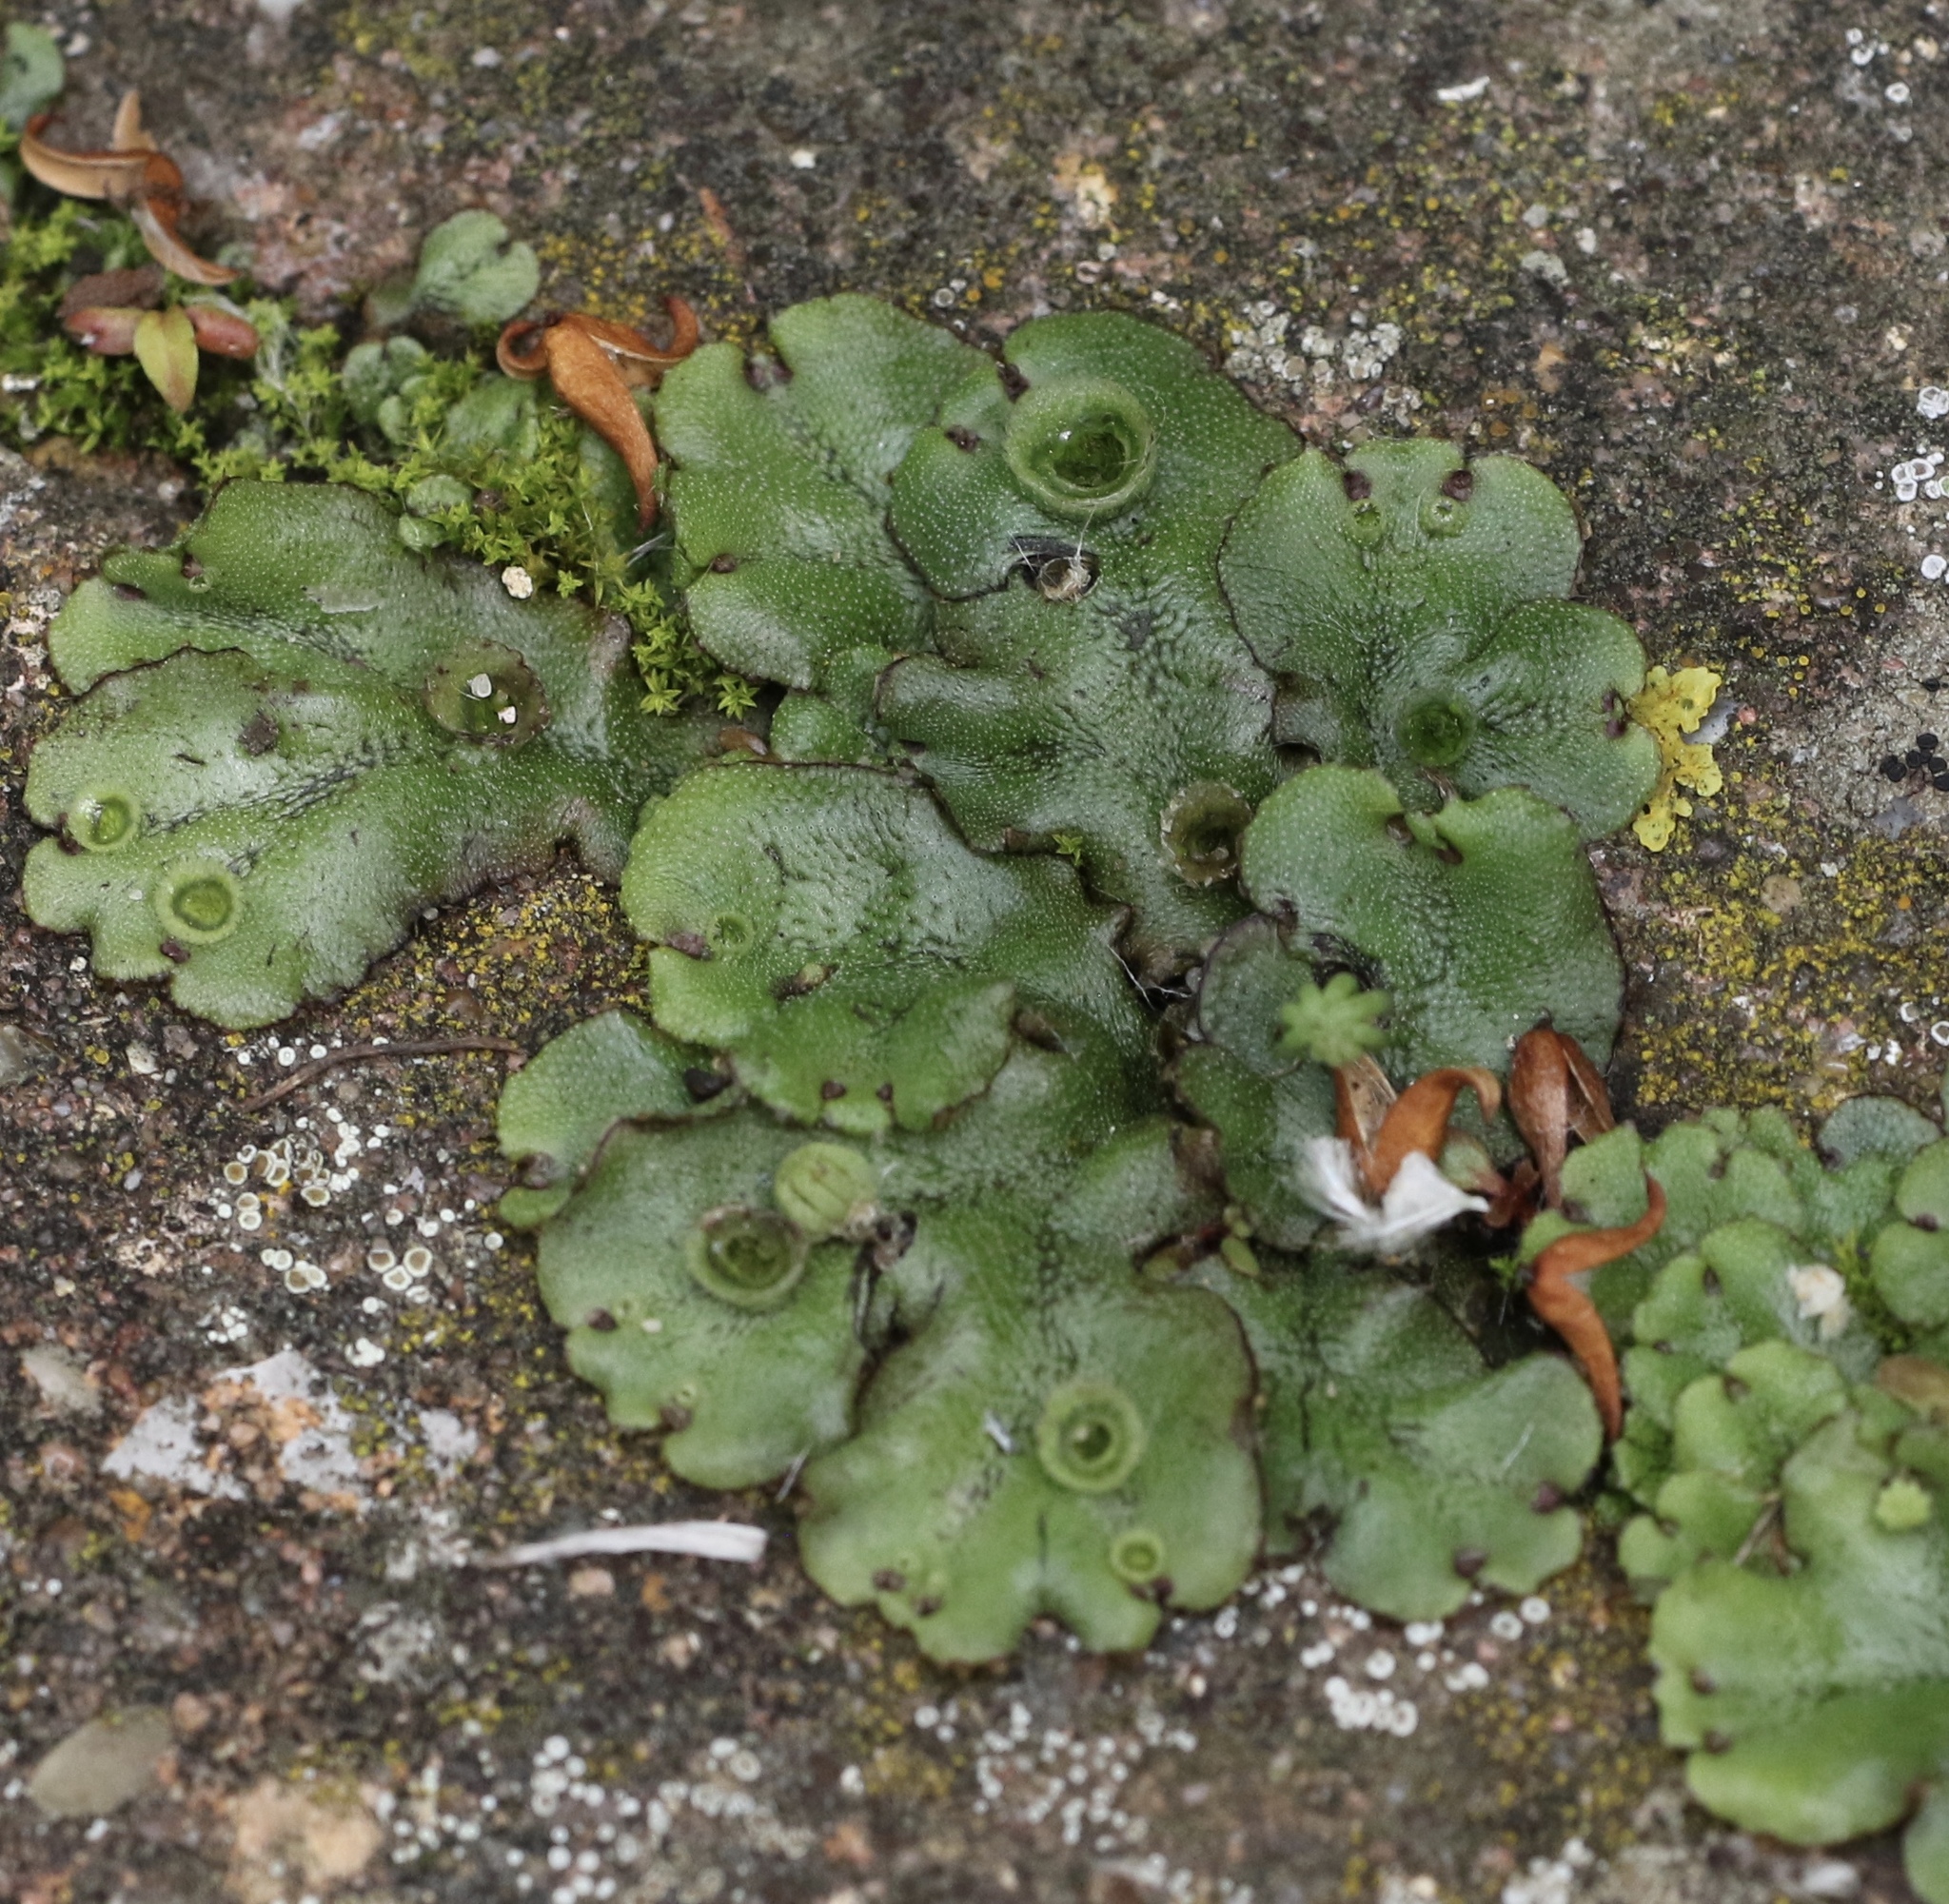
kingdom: Plantae
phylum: Marchantiophyta
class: Marchantiopsida
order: Marchantiales
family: Marchantiaceae
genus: Marchantia
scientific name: Marchantia polymorpha
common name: Common liverwort
